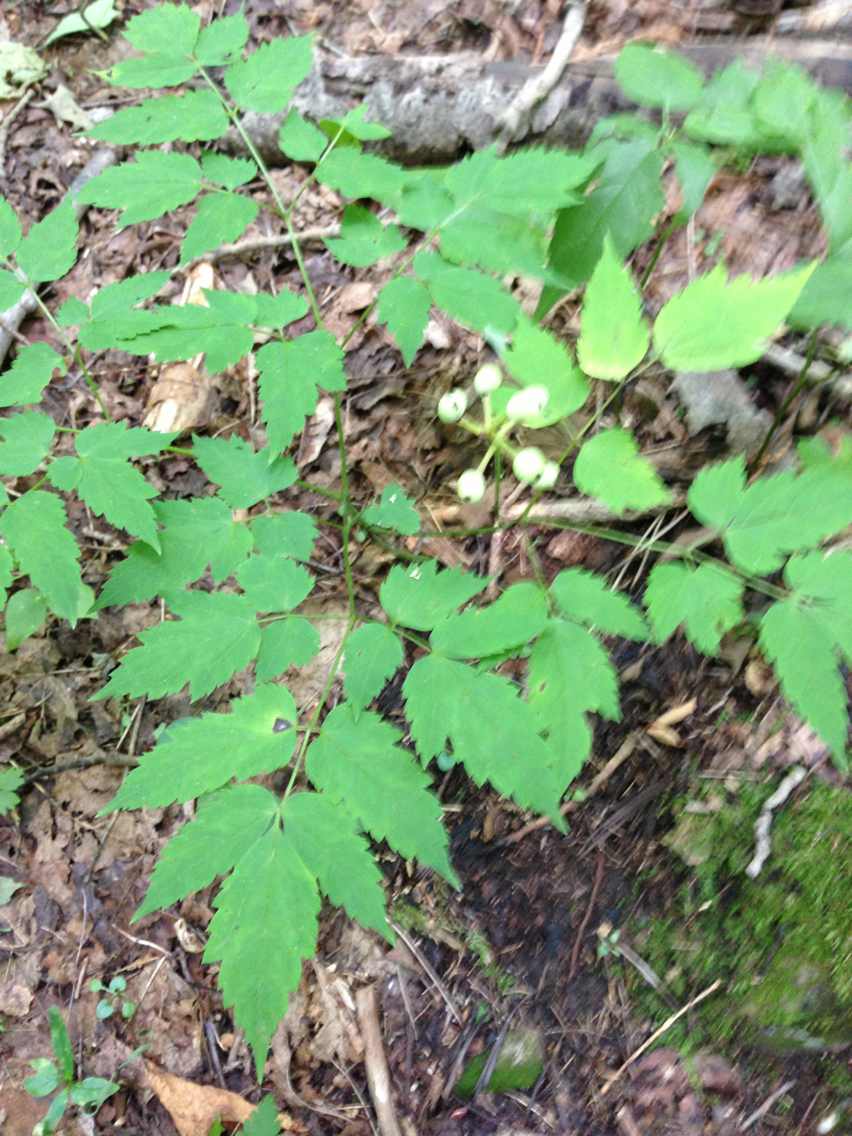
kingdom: Plantae
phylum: Tracheophyta
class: Magnoliopsida
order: Ranunculales
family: Ranunculaceae
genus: Actaea
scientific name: Actaea pachypoda
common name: Doll's-eyes
